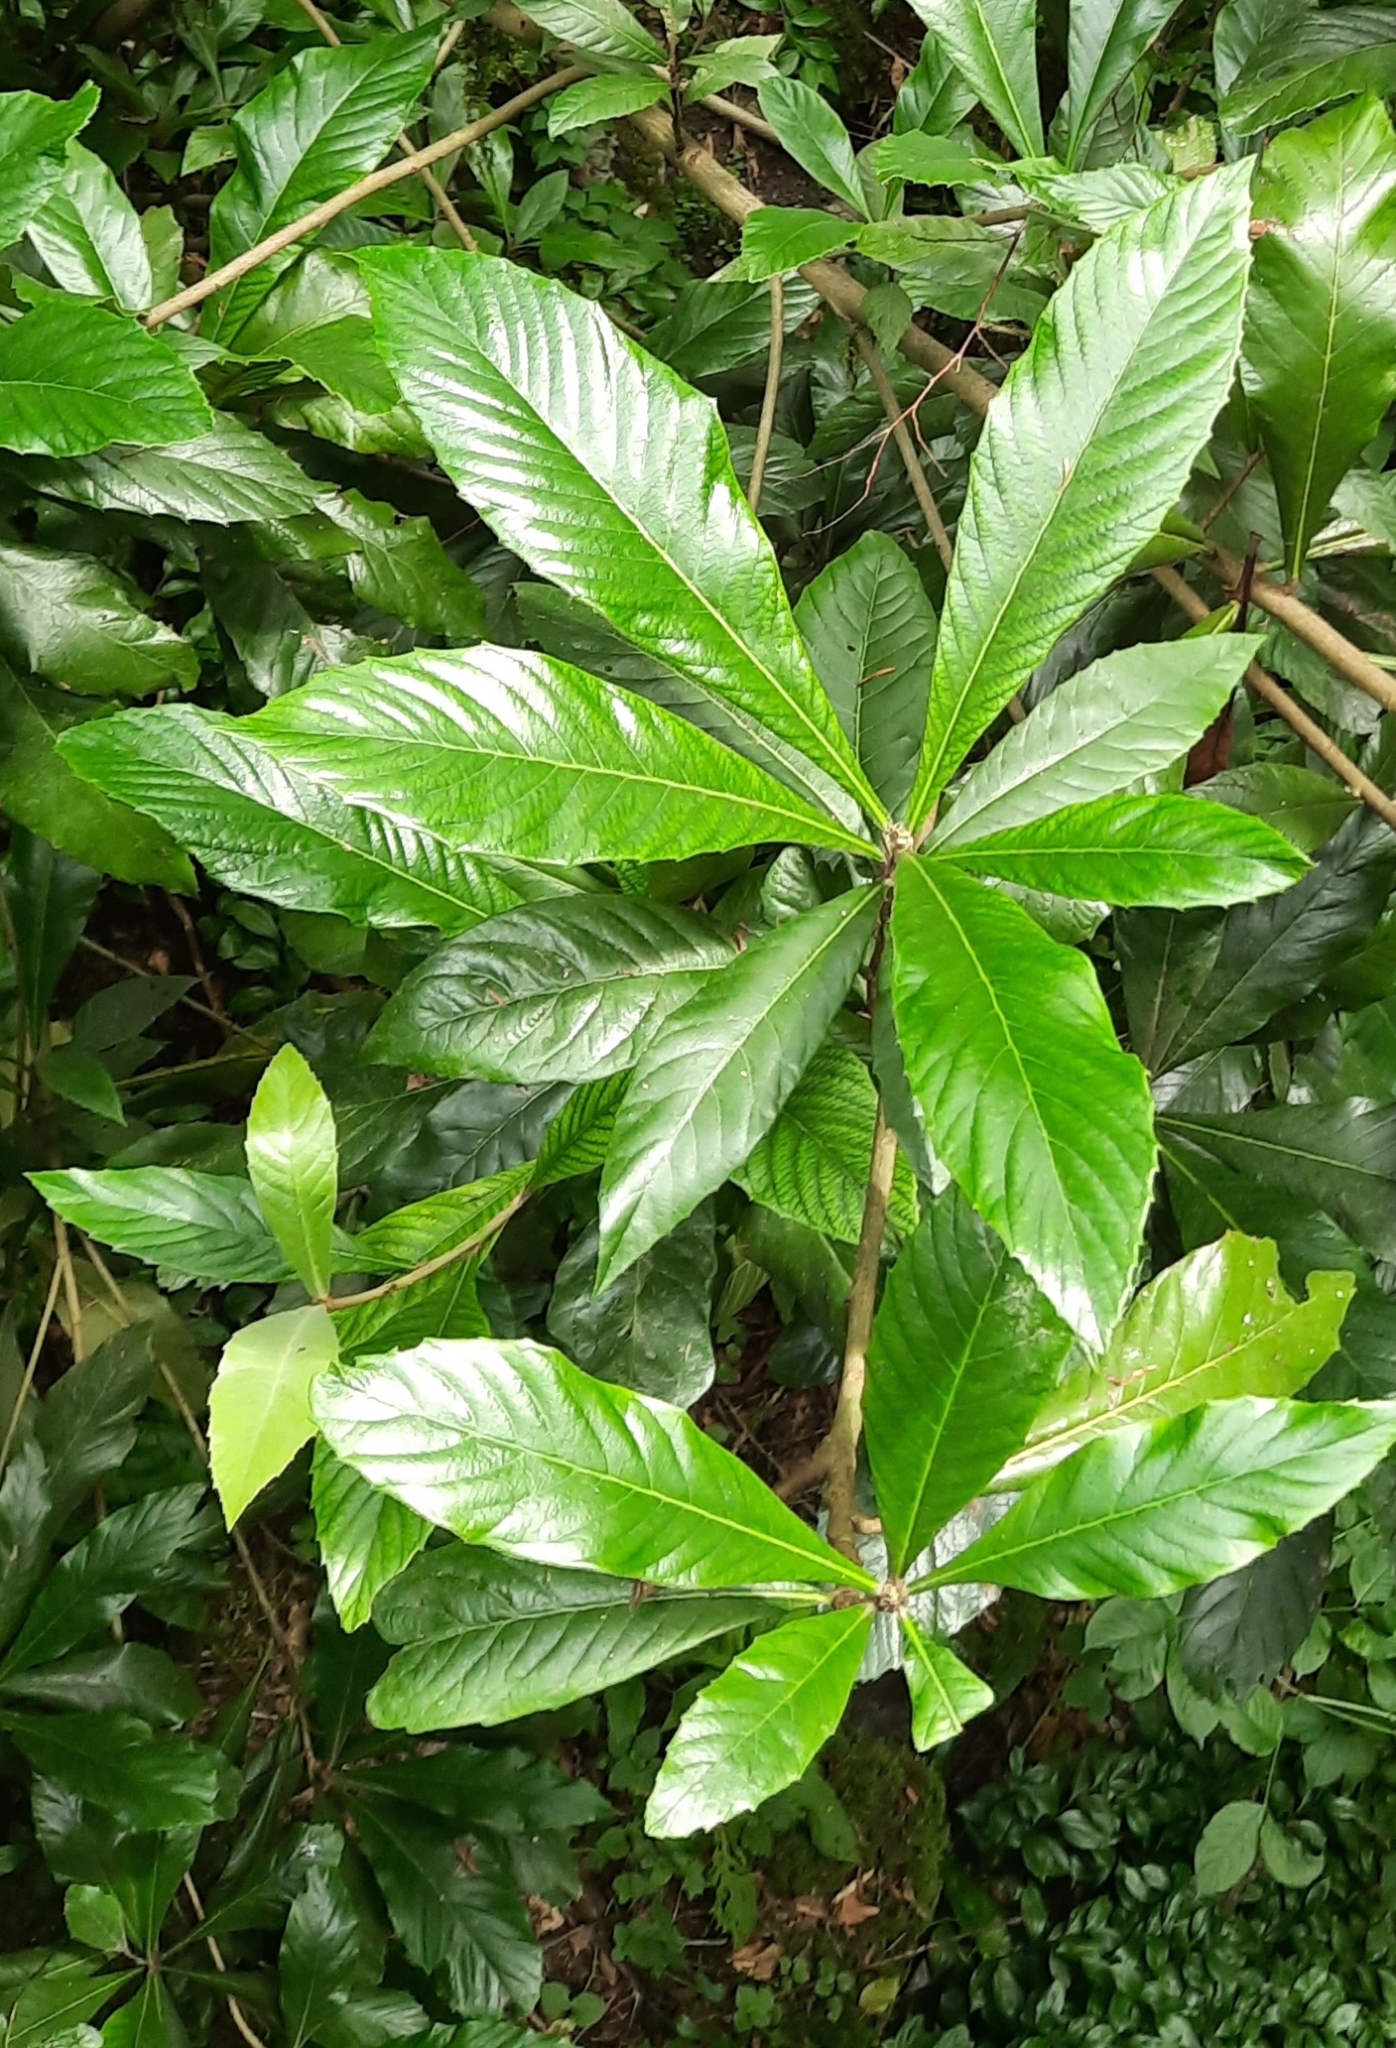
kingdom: Plantae
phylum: Tracheophyta
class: Magnoliopsida
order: Rosales
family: Rosaceae
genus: Rhaphiolepis
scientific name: Rhaphiolepis bibas
